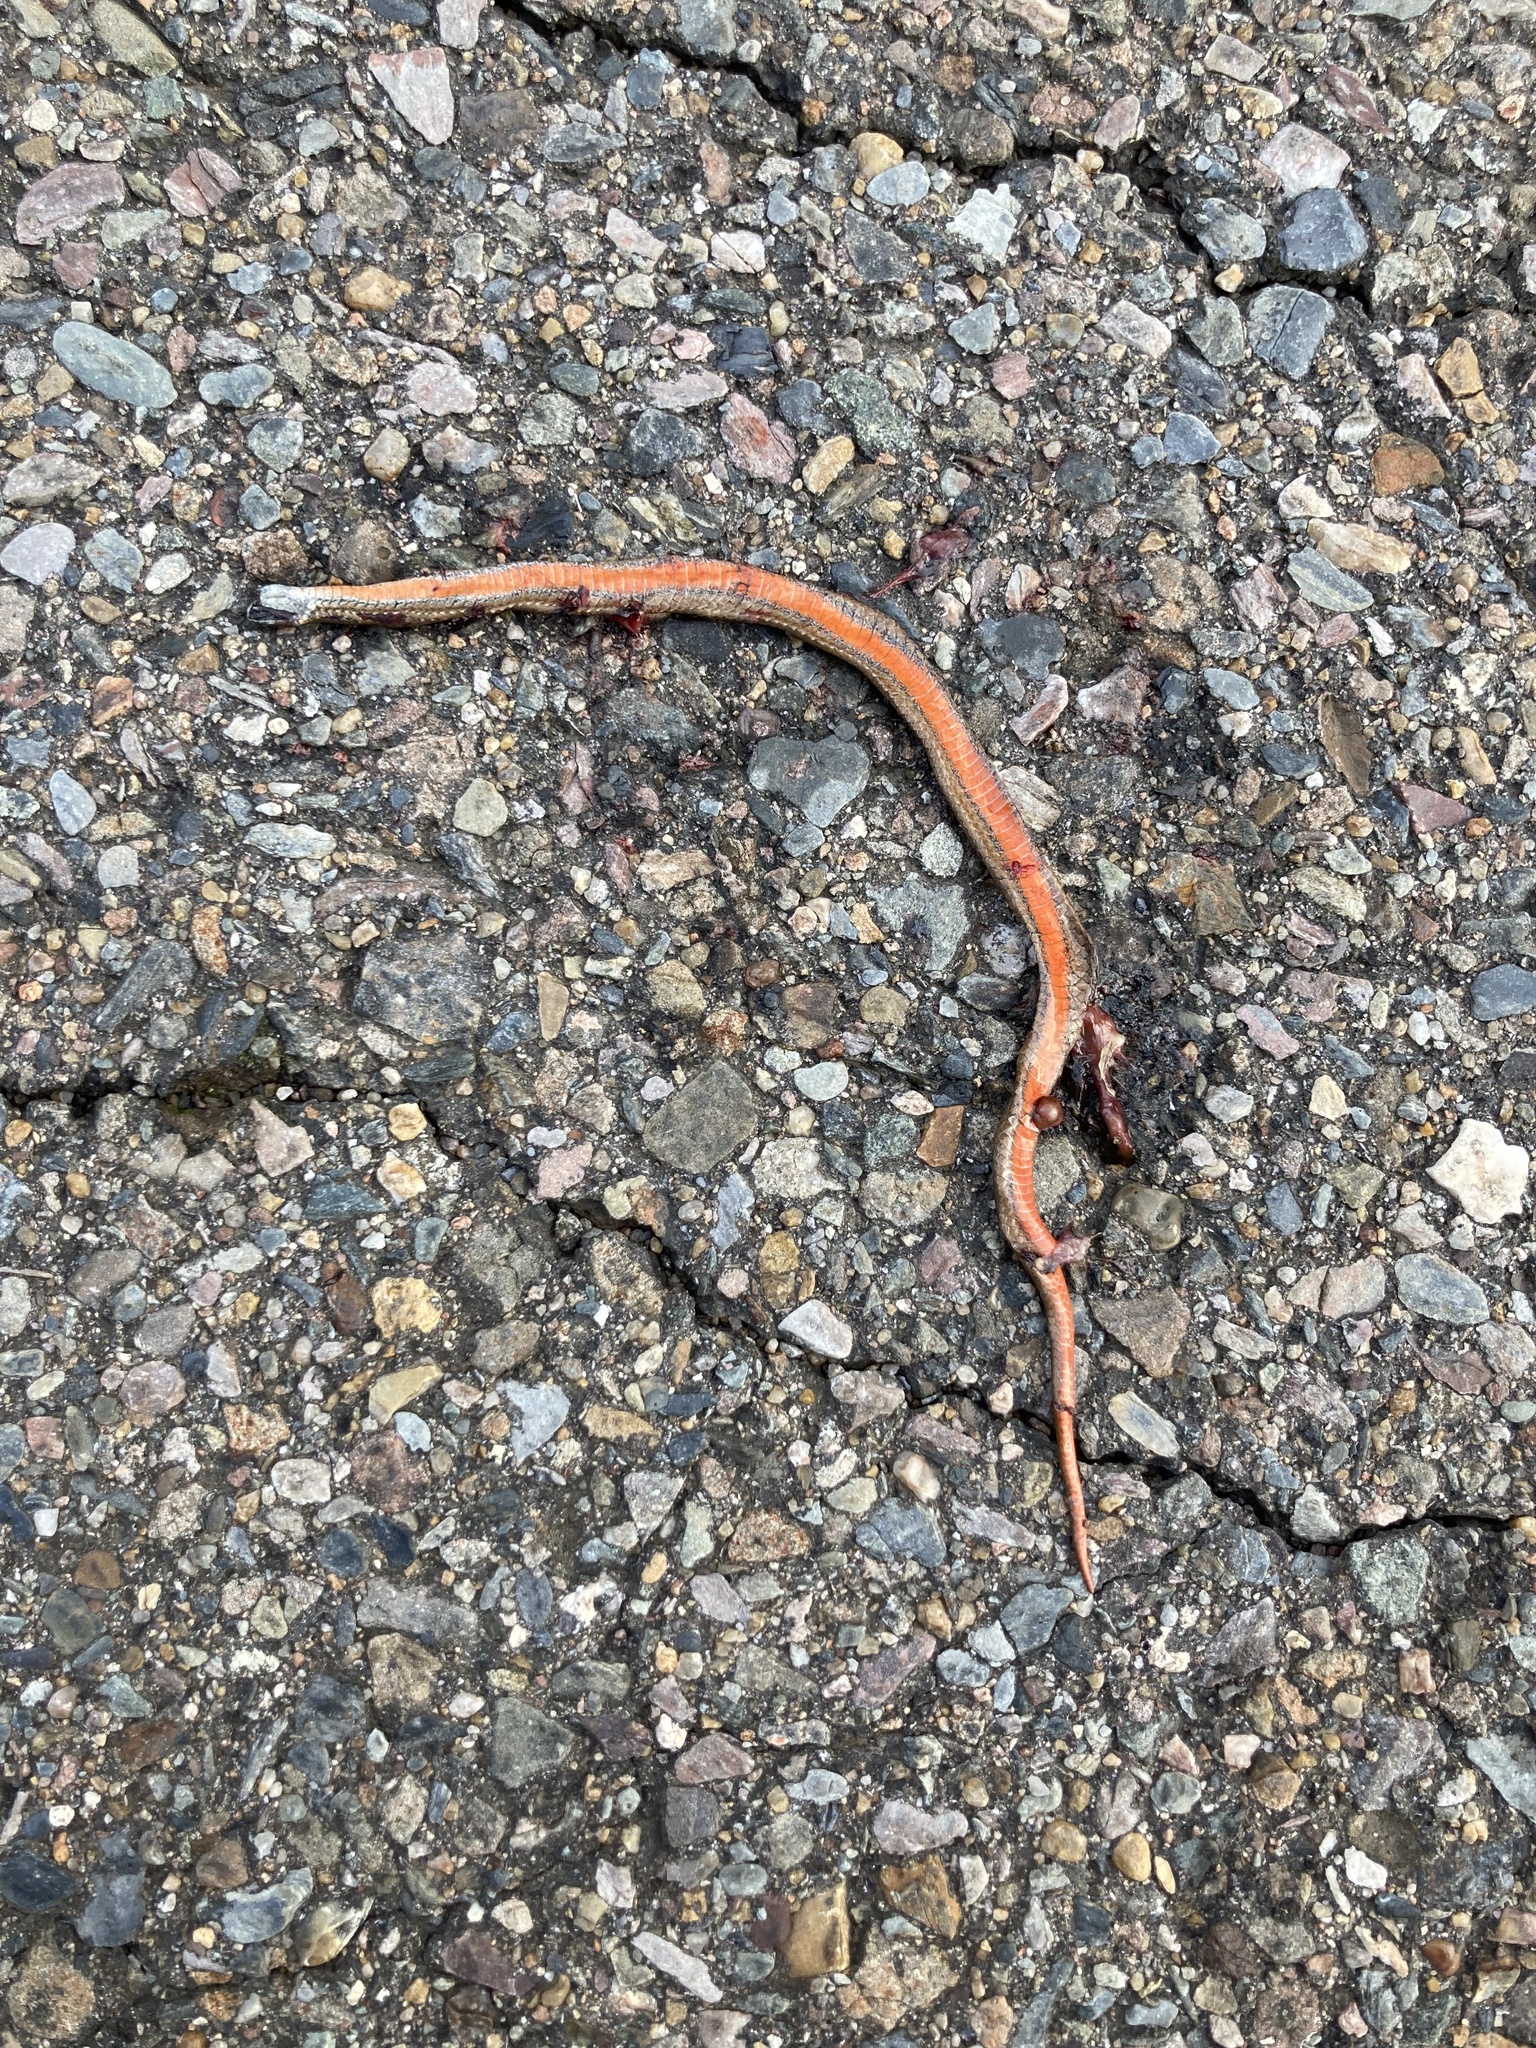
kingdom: Animalia
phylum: Chordata
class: Squamata
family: Colubridae
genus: Storeria
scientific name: Storeria occipitomaculata
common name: Redbelly snake
